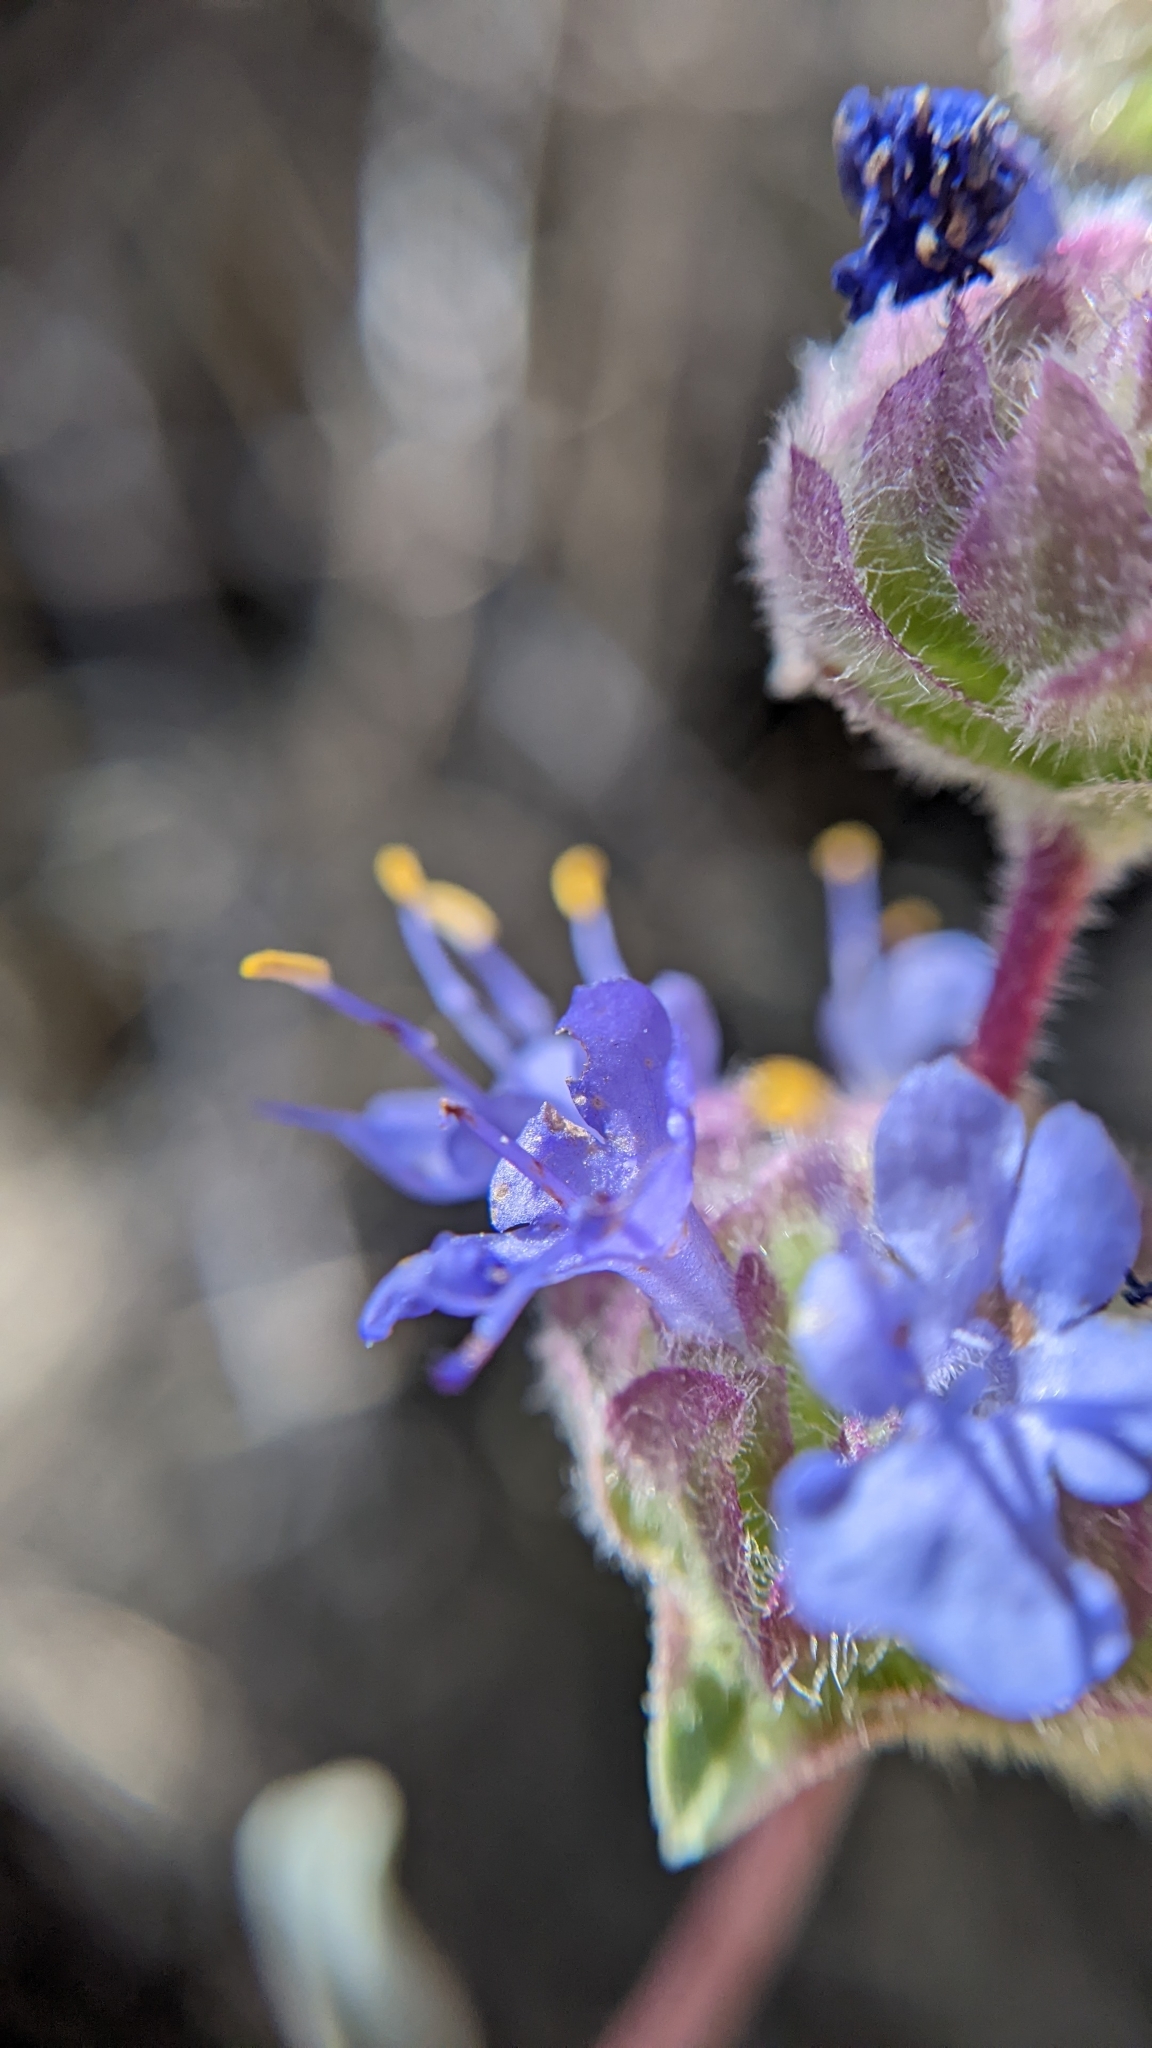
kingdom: Plantae
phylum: Tracheophyta
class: Magnoliopsida
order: Lamiales
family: Lamiaceae
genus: Salvia
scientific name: Salvia dorrii
